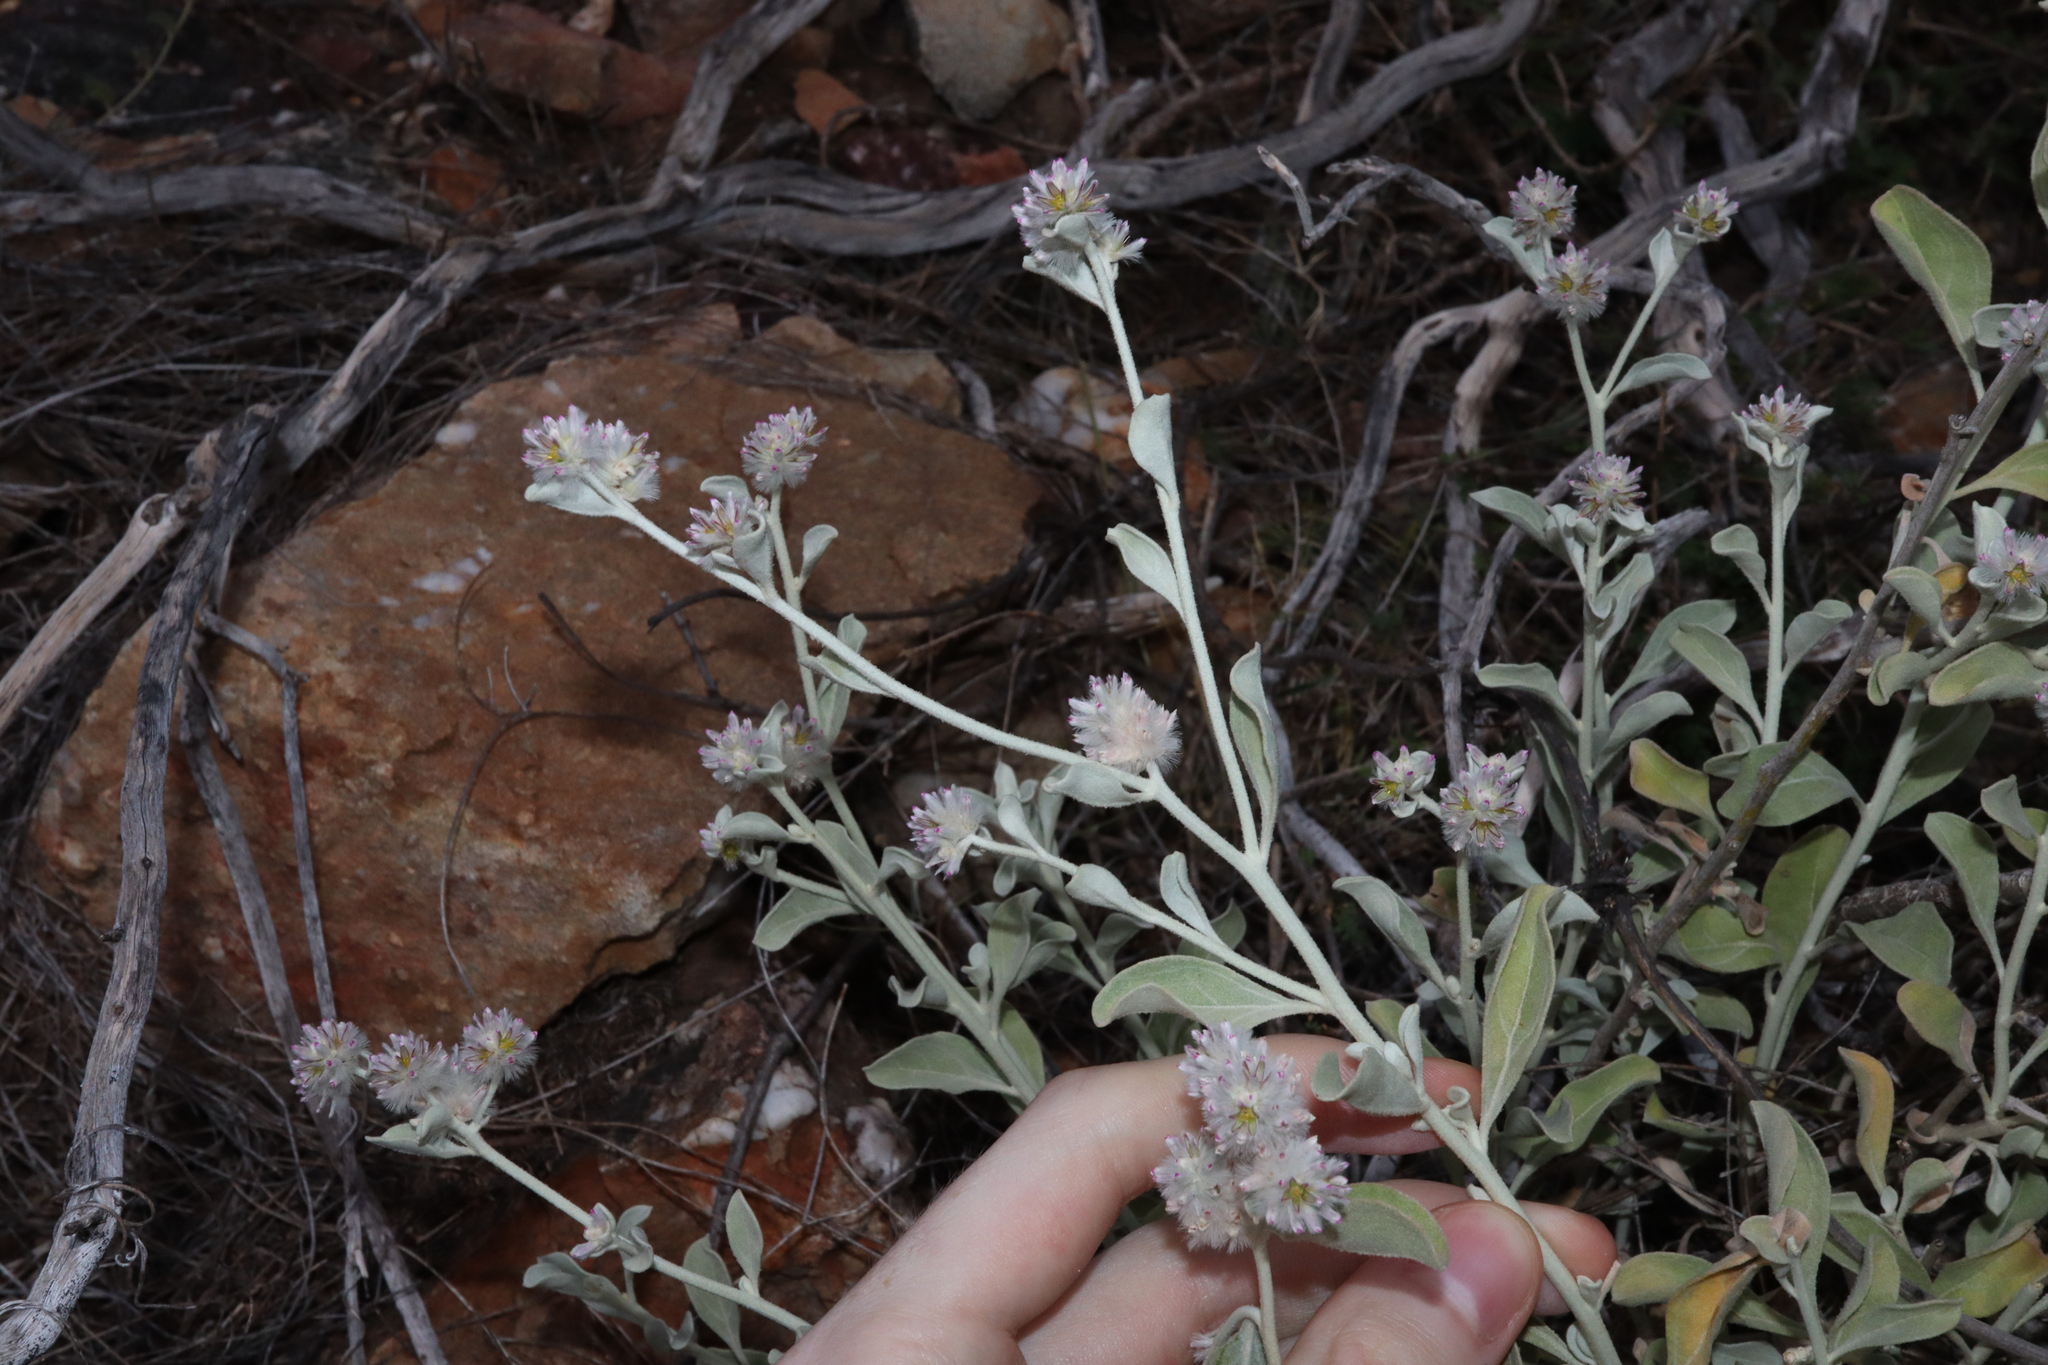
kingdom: Plantae
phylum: Tracheophyta
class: Magnoliopsida
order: Caryophyllales
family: Amaranthaceae
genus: Ptilotus
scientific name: Ptilotus obovatus
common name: Cottonbush
